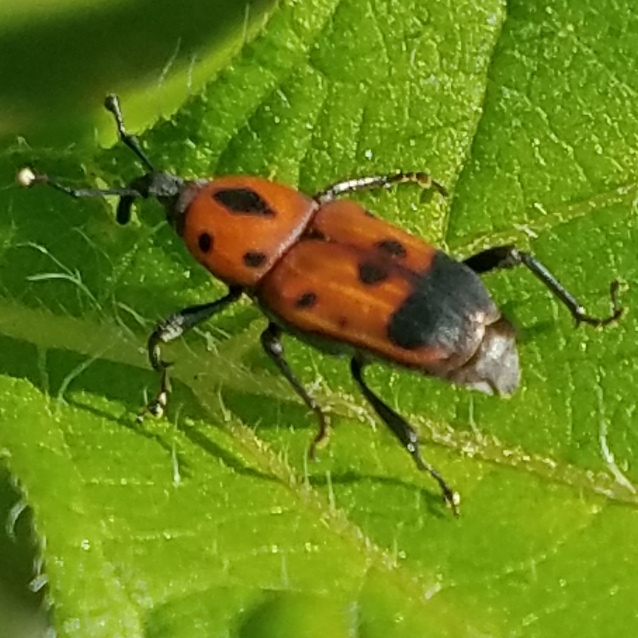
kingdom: Animalia
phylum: Arthropoda
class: Insecta
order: Coleoptera
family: Dryophthoridae
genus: Rhodobaenus
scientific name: Rhodobaenus quinquepunctatus
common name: Cocklebur weevil
